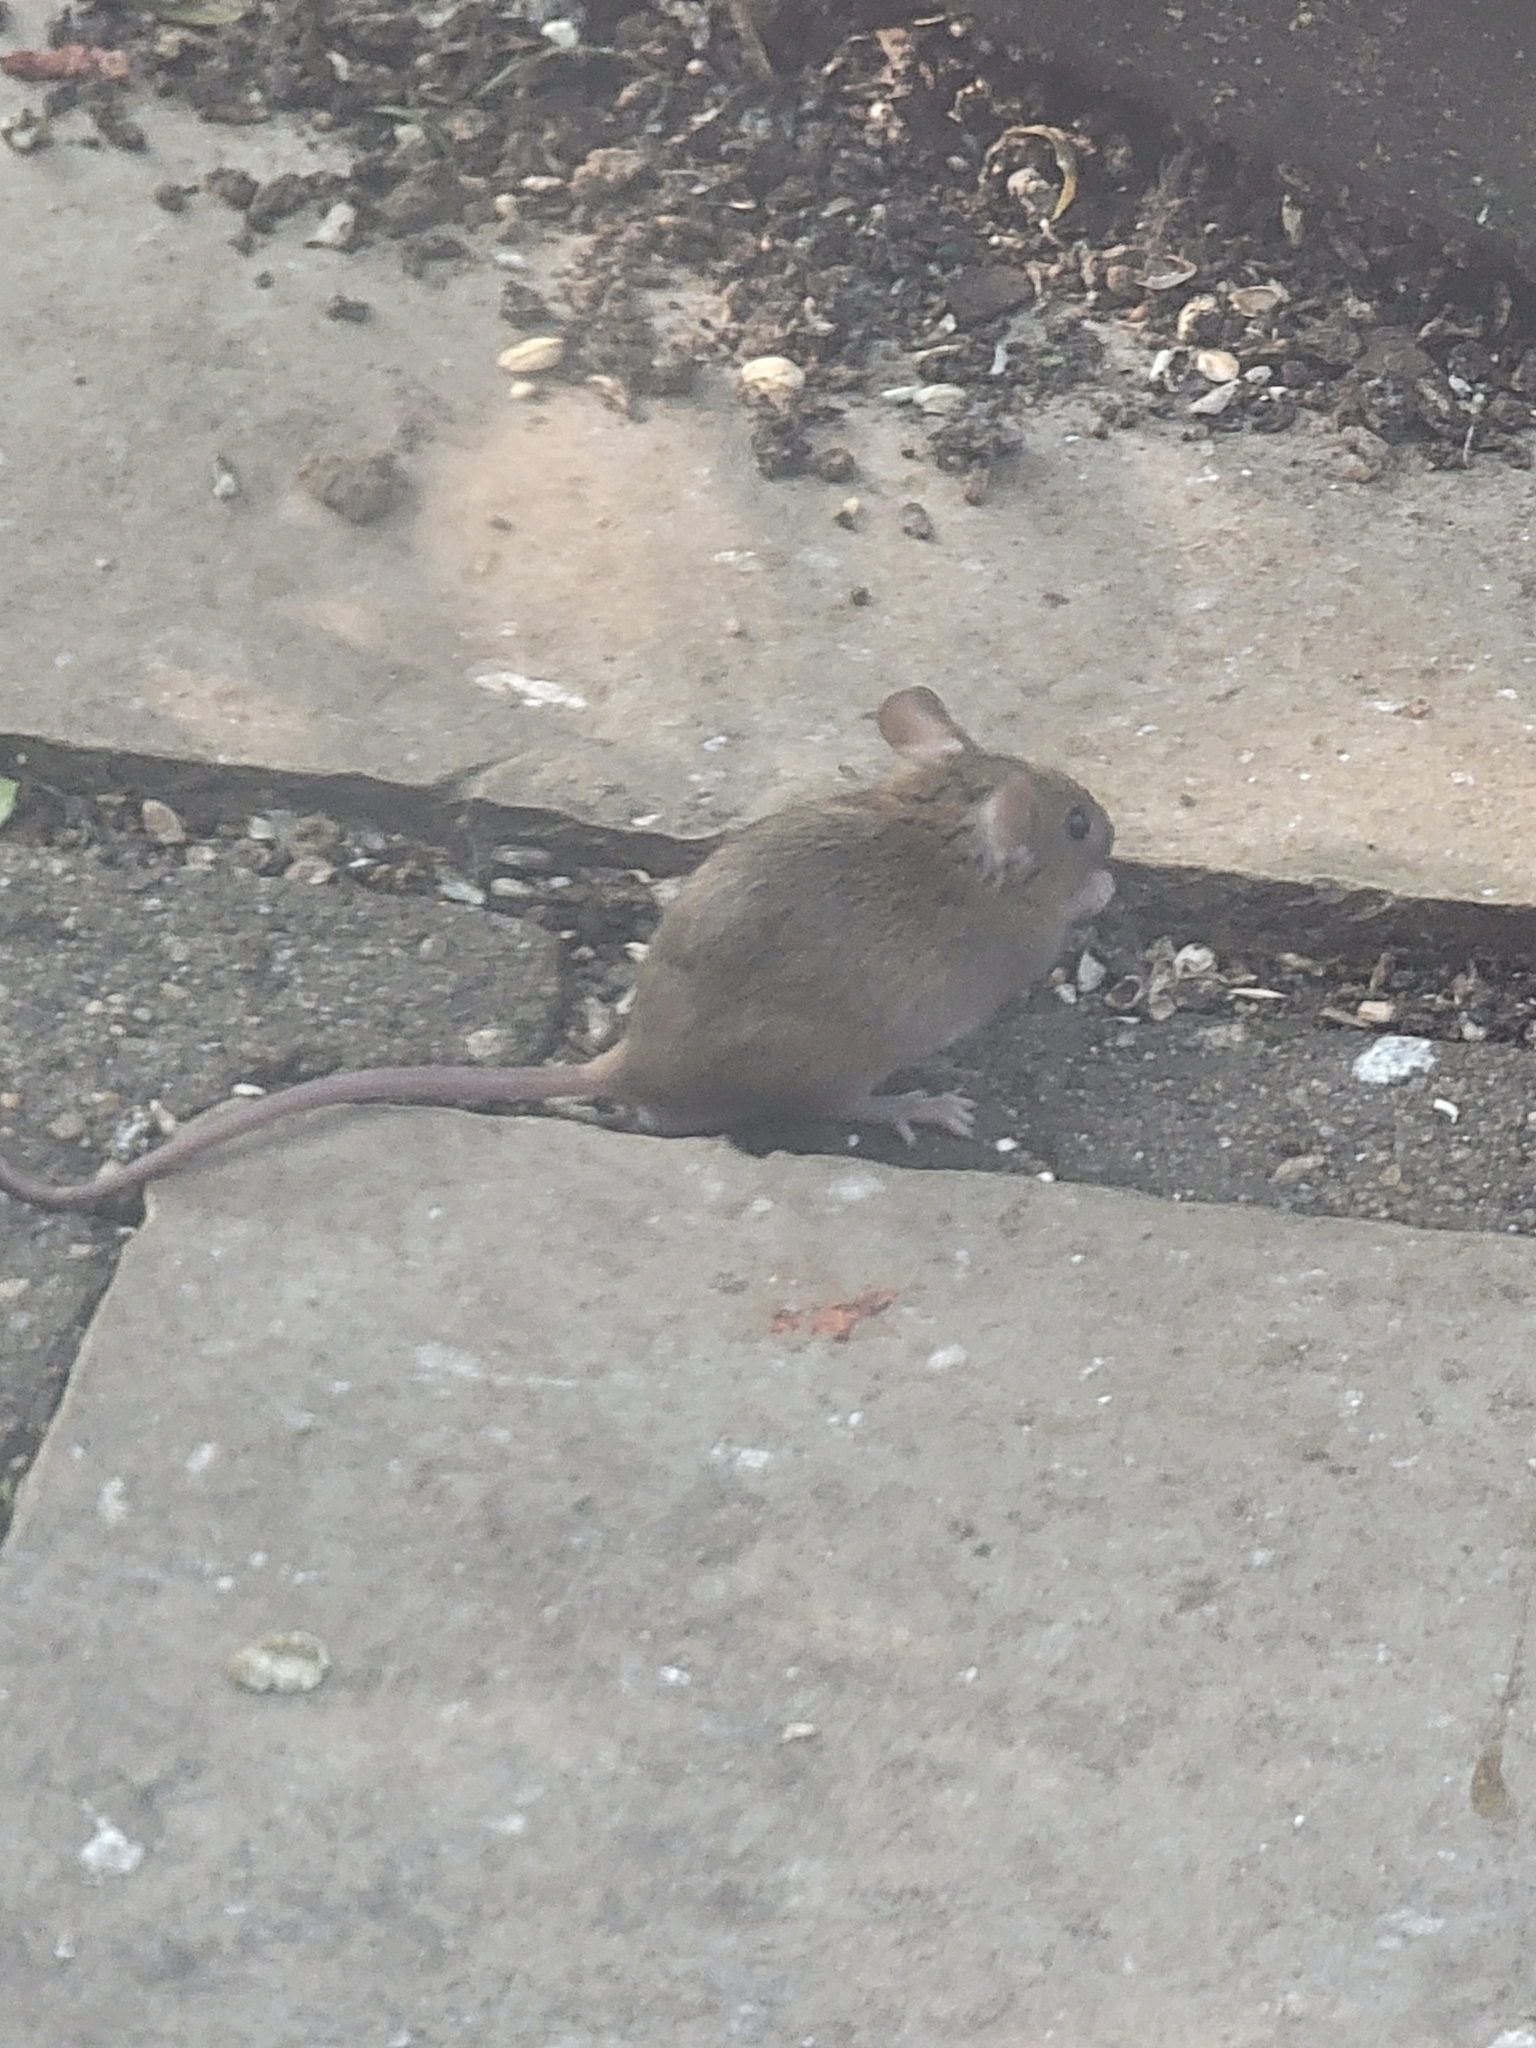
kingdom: Animalia
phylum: Chordata
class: Mammalia
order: Rodentia
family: Muridae
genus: Mus
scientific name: Mus musculus
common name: House mouse
